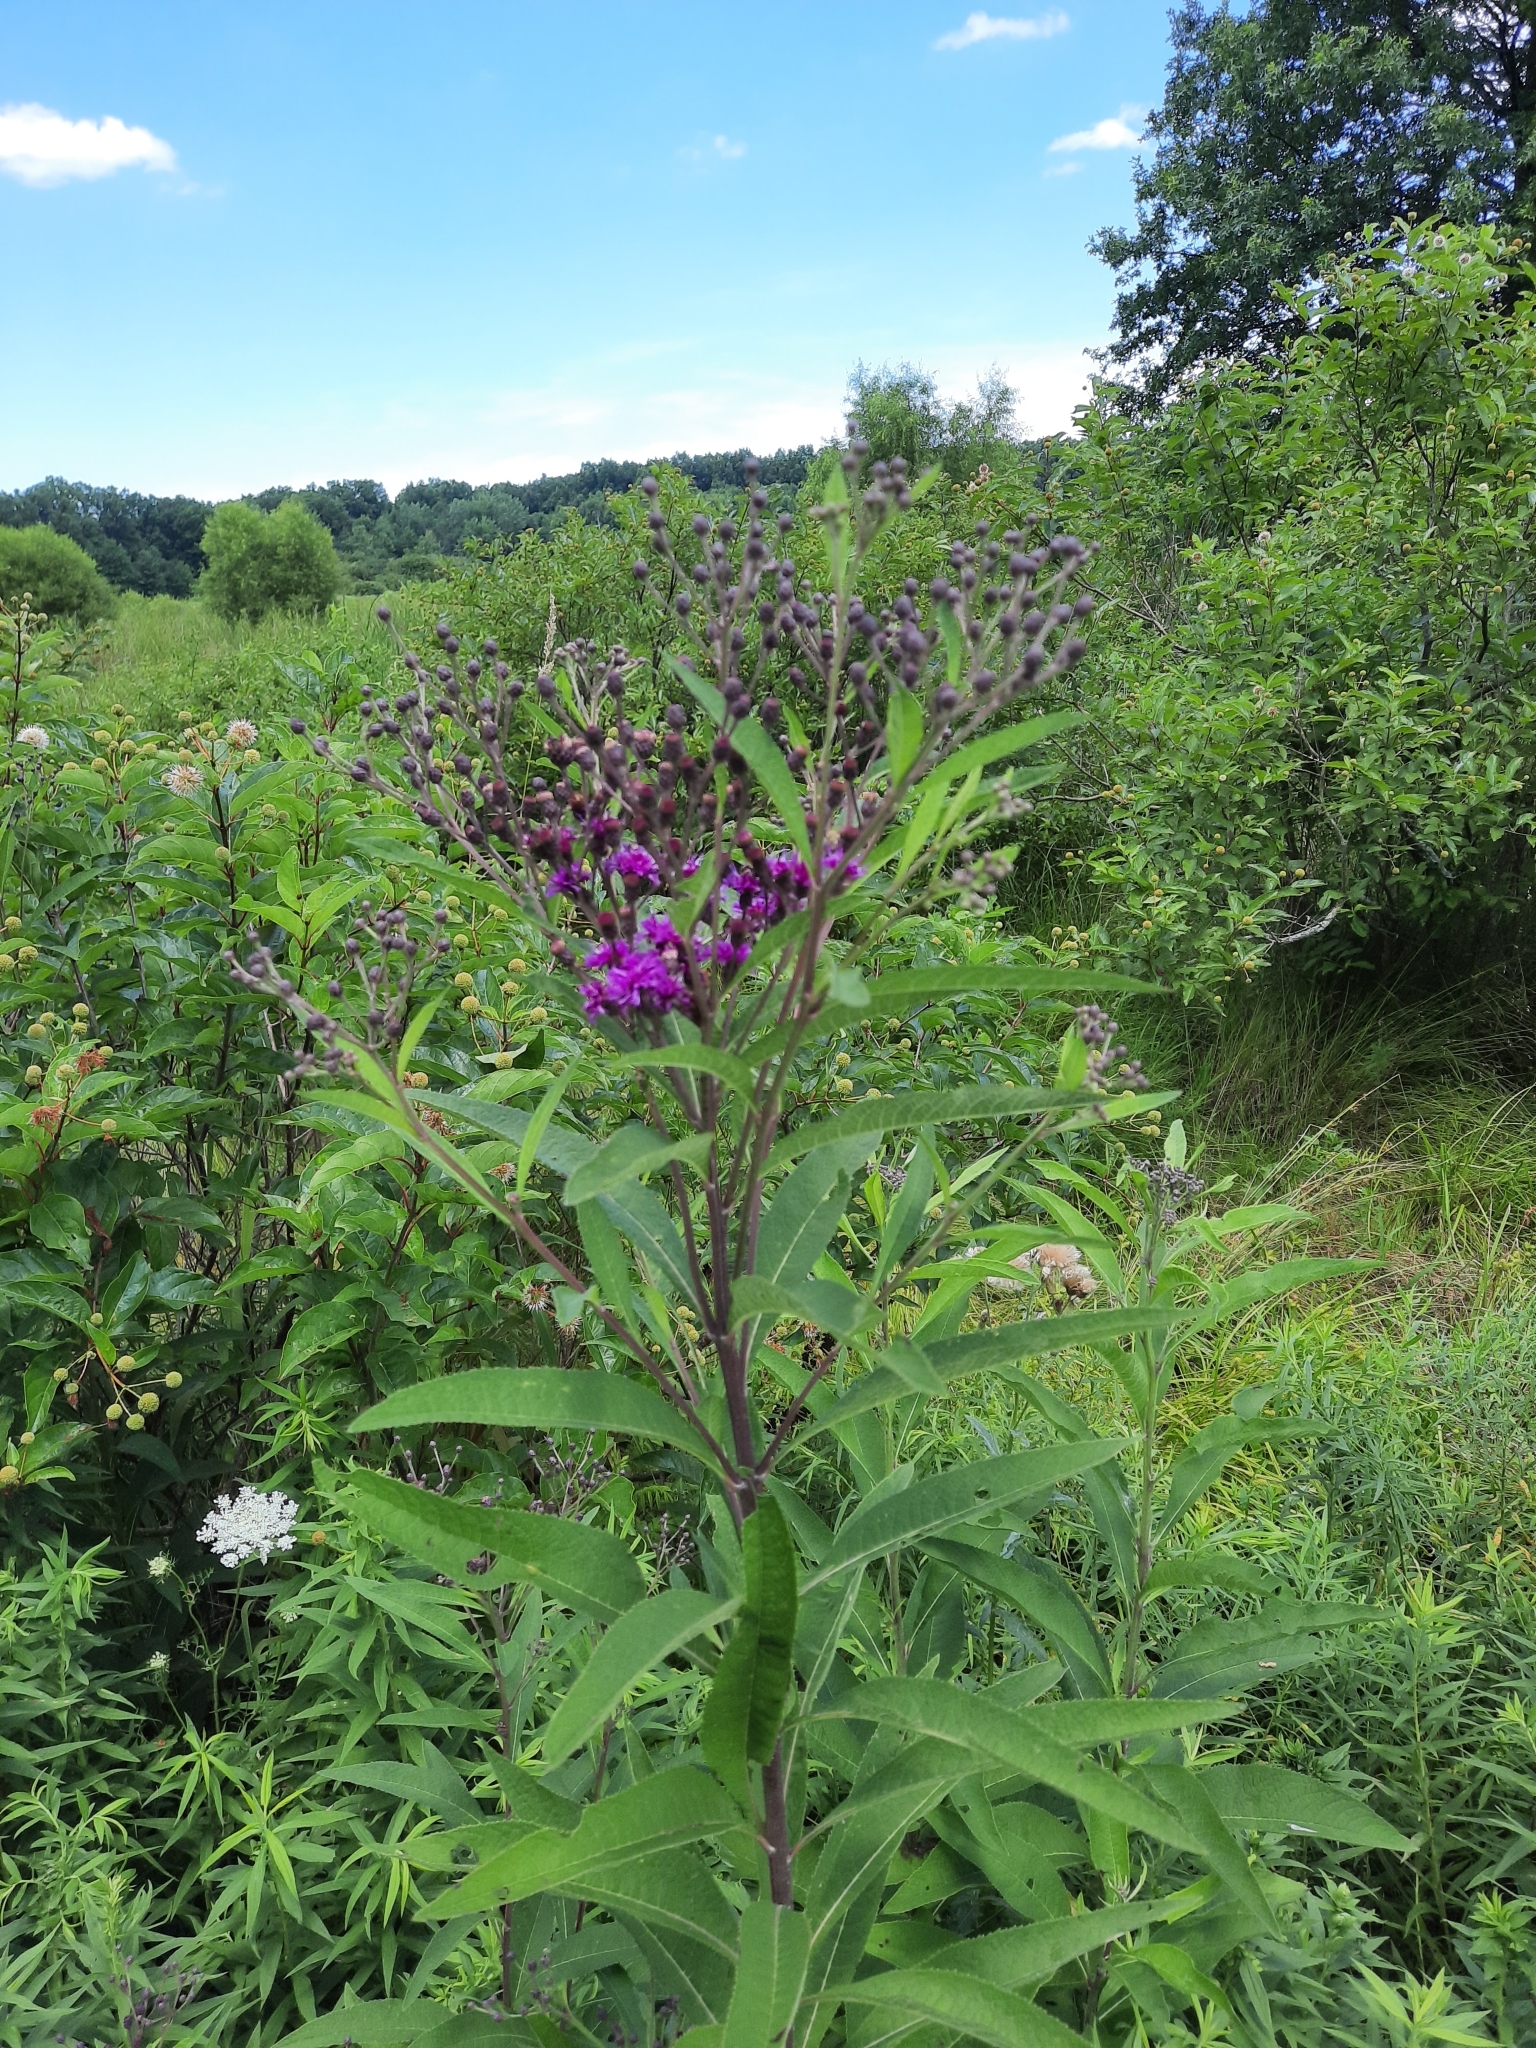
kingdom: Plantae
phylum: Tracheophyta
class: Magnoliopsida
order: Asterales
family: Asteraceae
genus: Vernonia
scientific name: Vernonia gigantea
